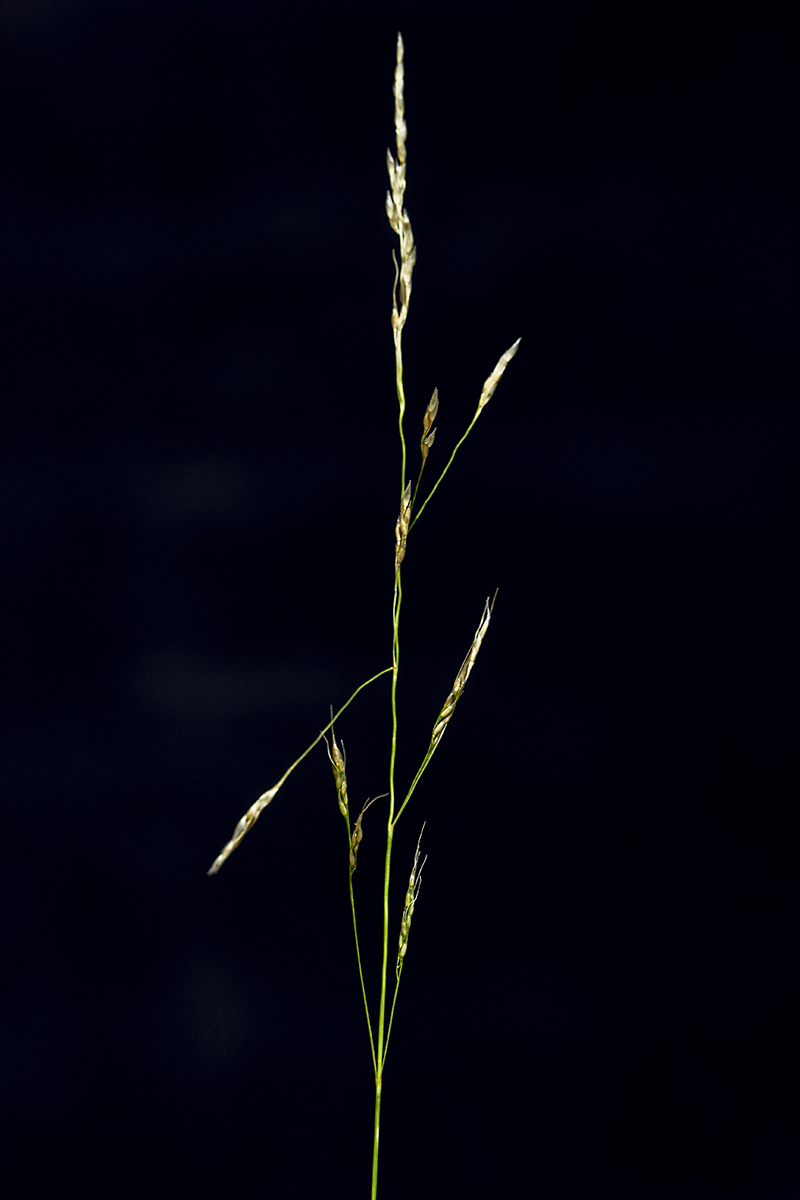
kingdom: Plantae
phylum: Tracheophyta
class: Liliopsida
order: Poales
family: Poaceae
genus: Piptatheropsis
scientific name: Piptatheropsis micrantha
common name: Little-seed mountain ricegrass
